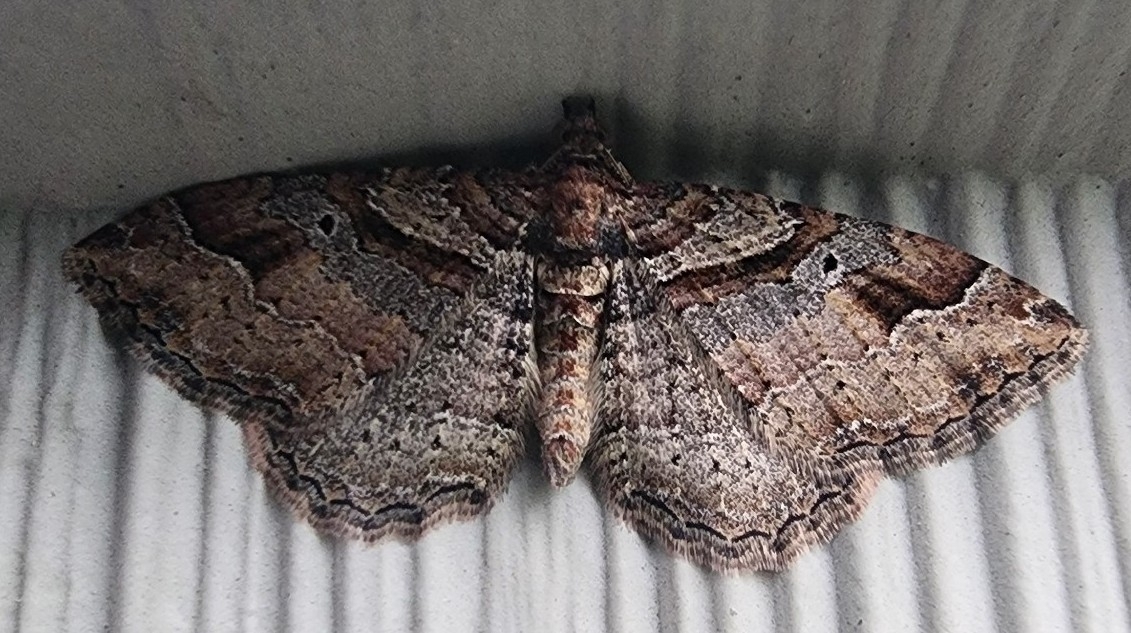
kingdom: Animalia
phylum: Arthropoda
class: Insecta
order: Lepidoptera
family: Geometridae
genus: Costaconvexa
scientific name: Costaconvexa centrostrigaria
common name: Bent-line carpet
